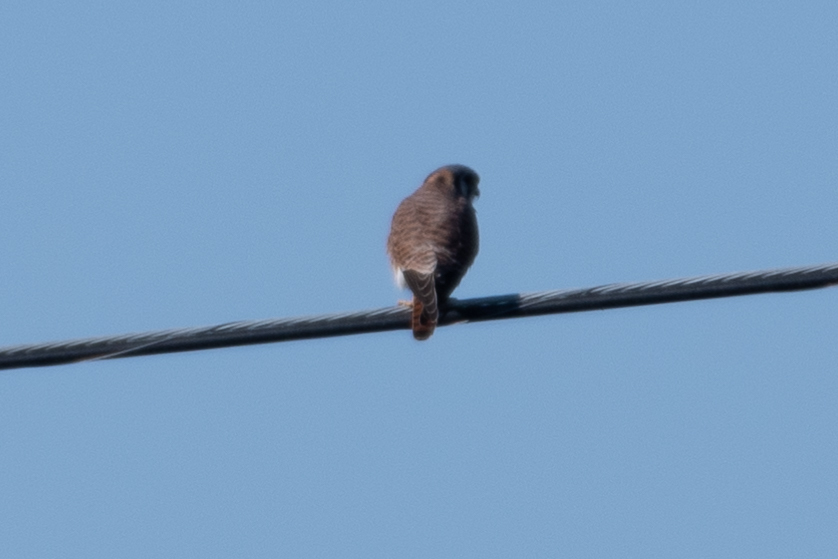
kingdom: Animalia
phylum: Chordata
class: Aves
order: Falconiformes
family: Falconidae
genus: Falco
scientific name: Falco sparverius
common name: American kestrel
